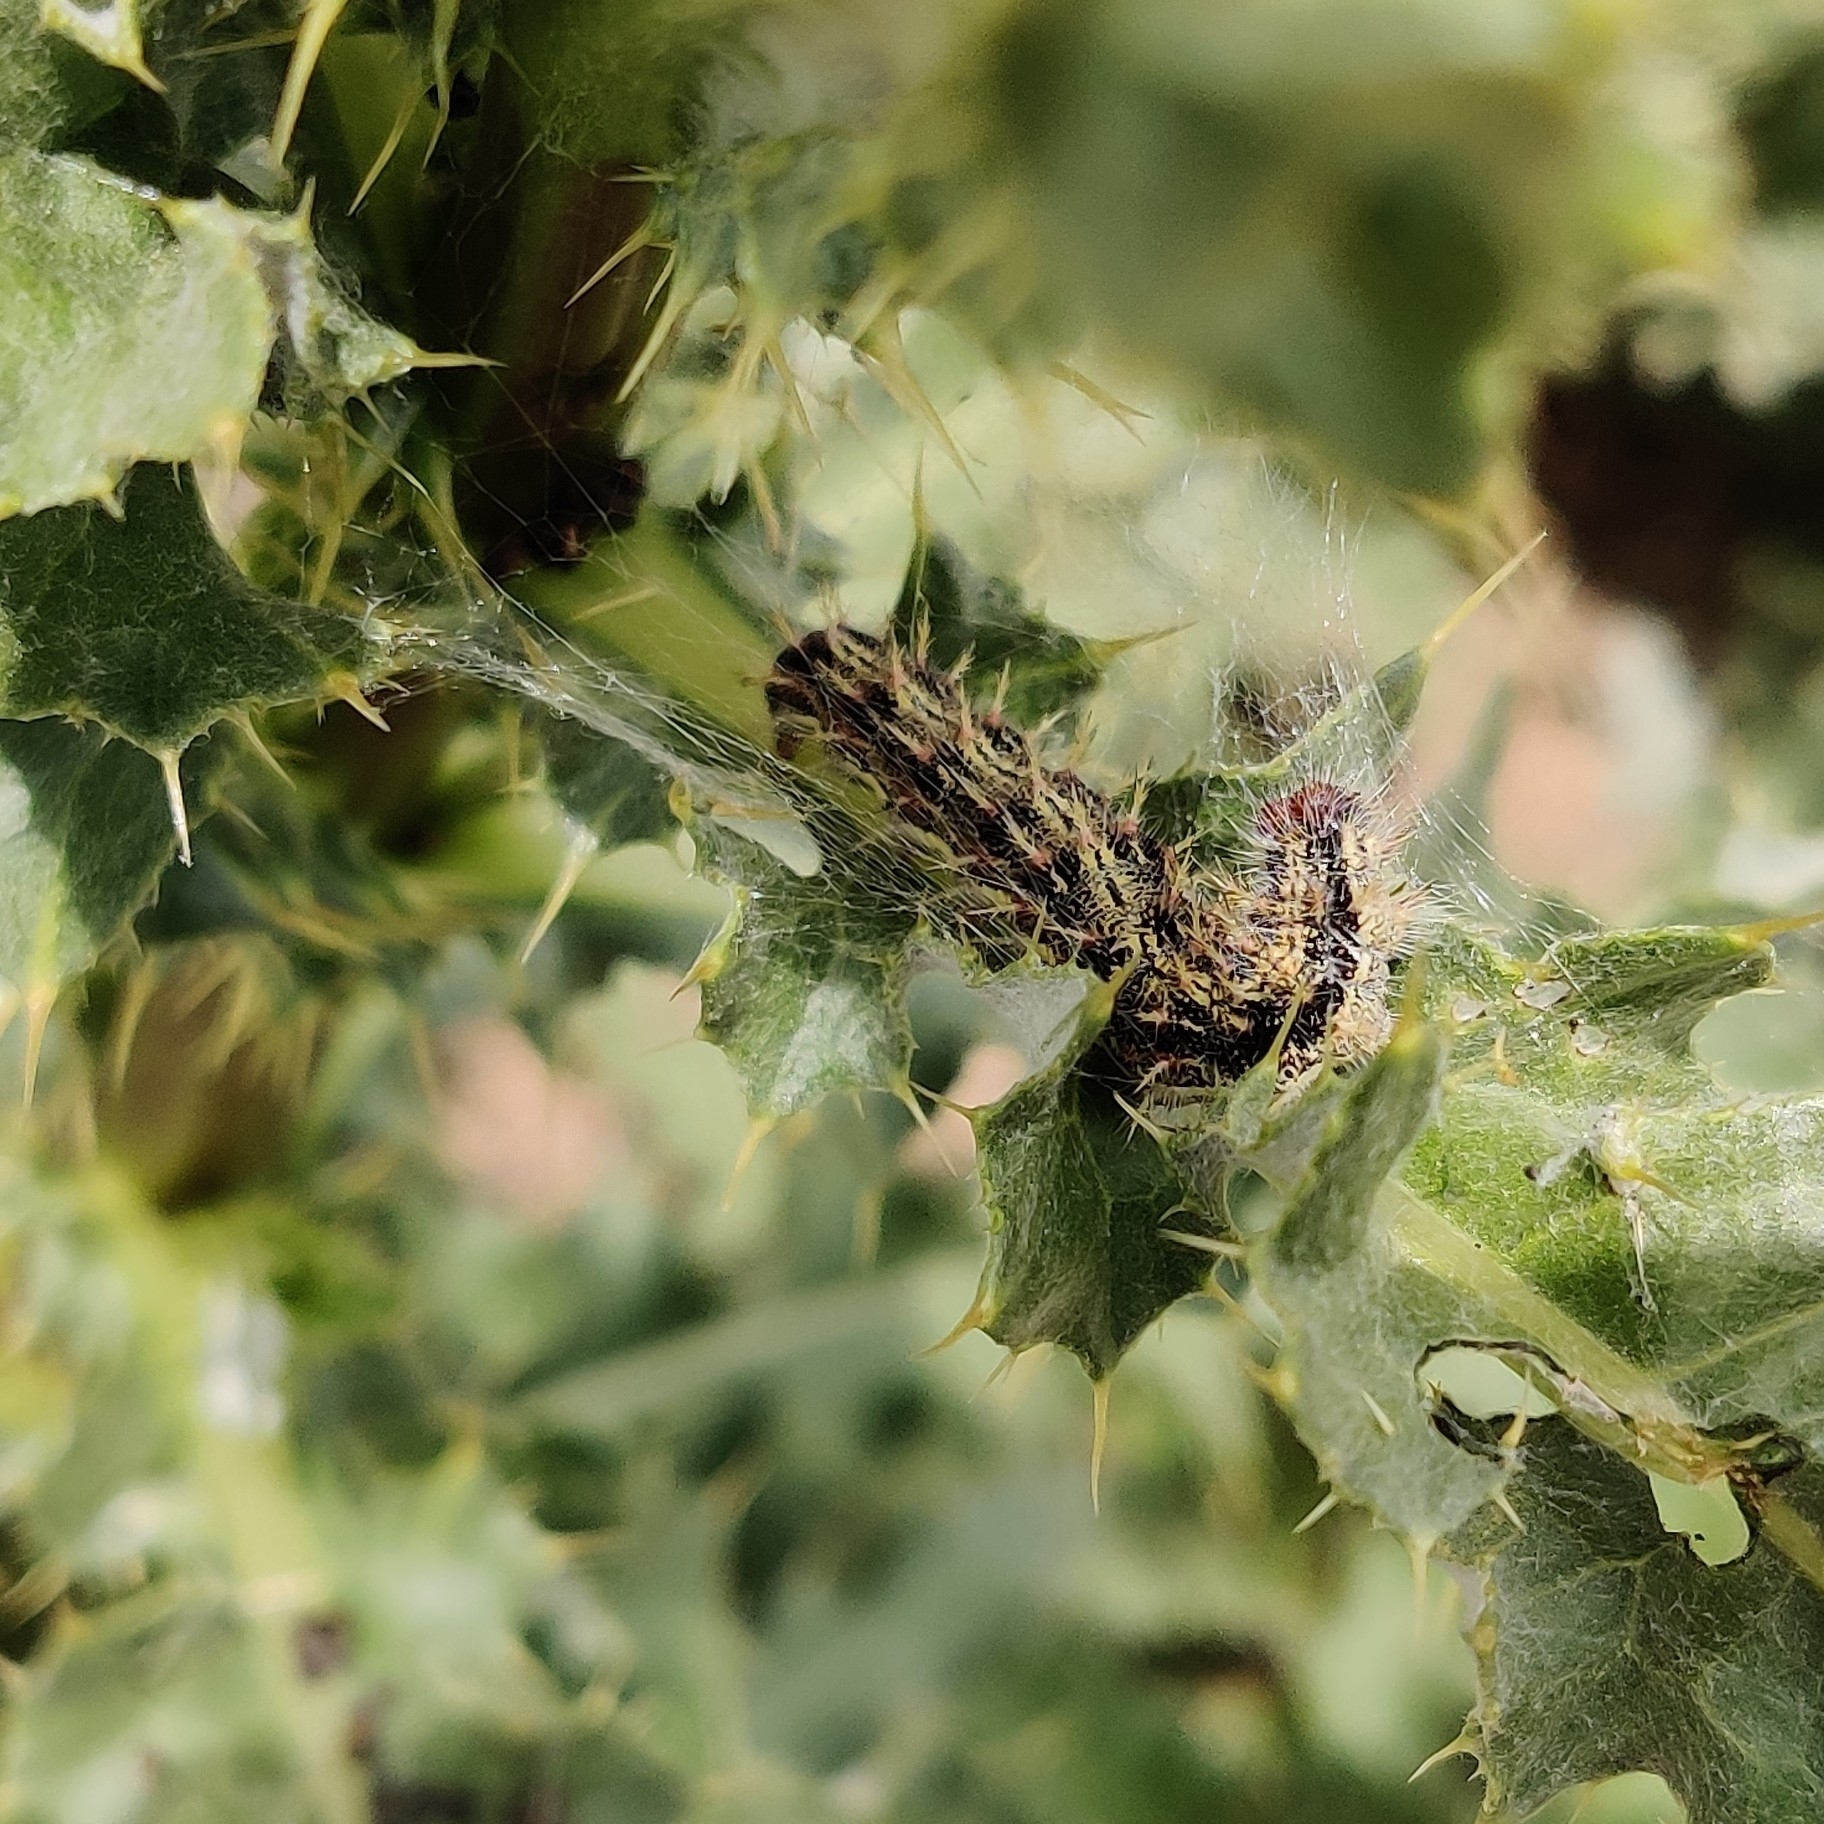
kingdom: Animalia
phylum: Arthropoda
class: Insecta
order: Lepidoptera
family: Nymphalidae
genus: Vanessa
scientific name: Vanessa cardui
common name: Painted lady
